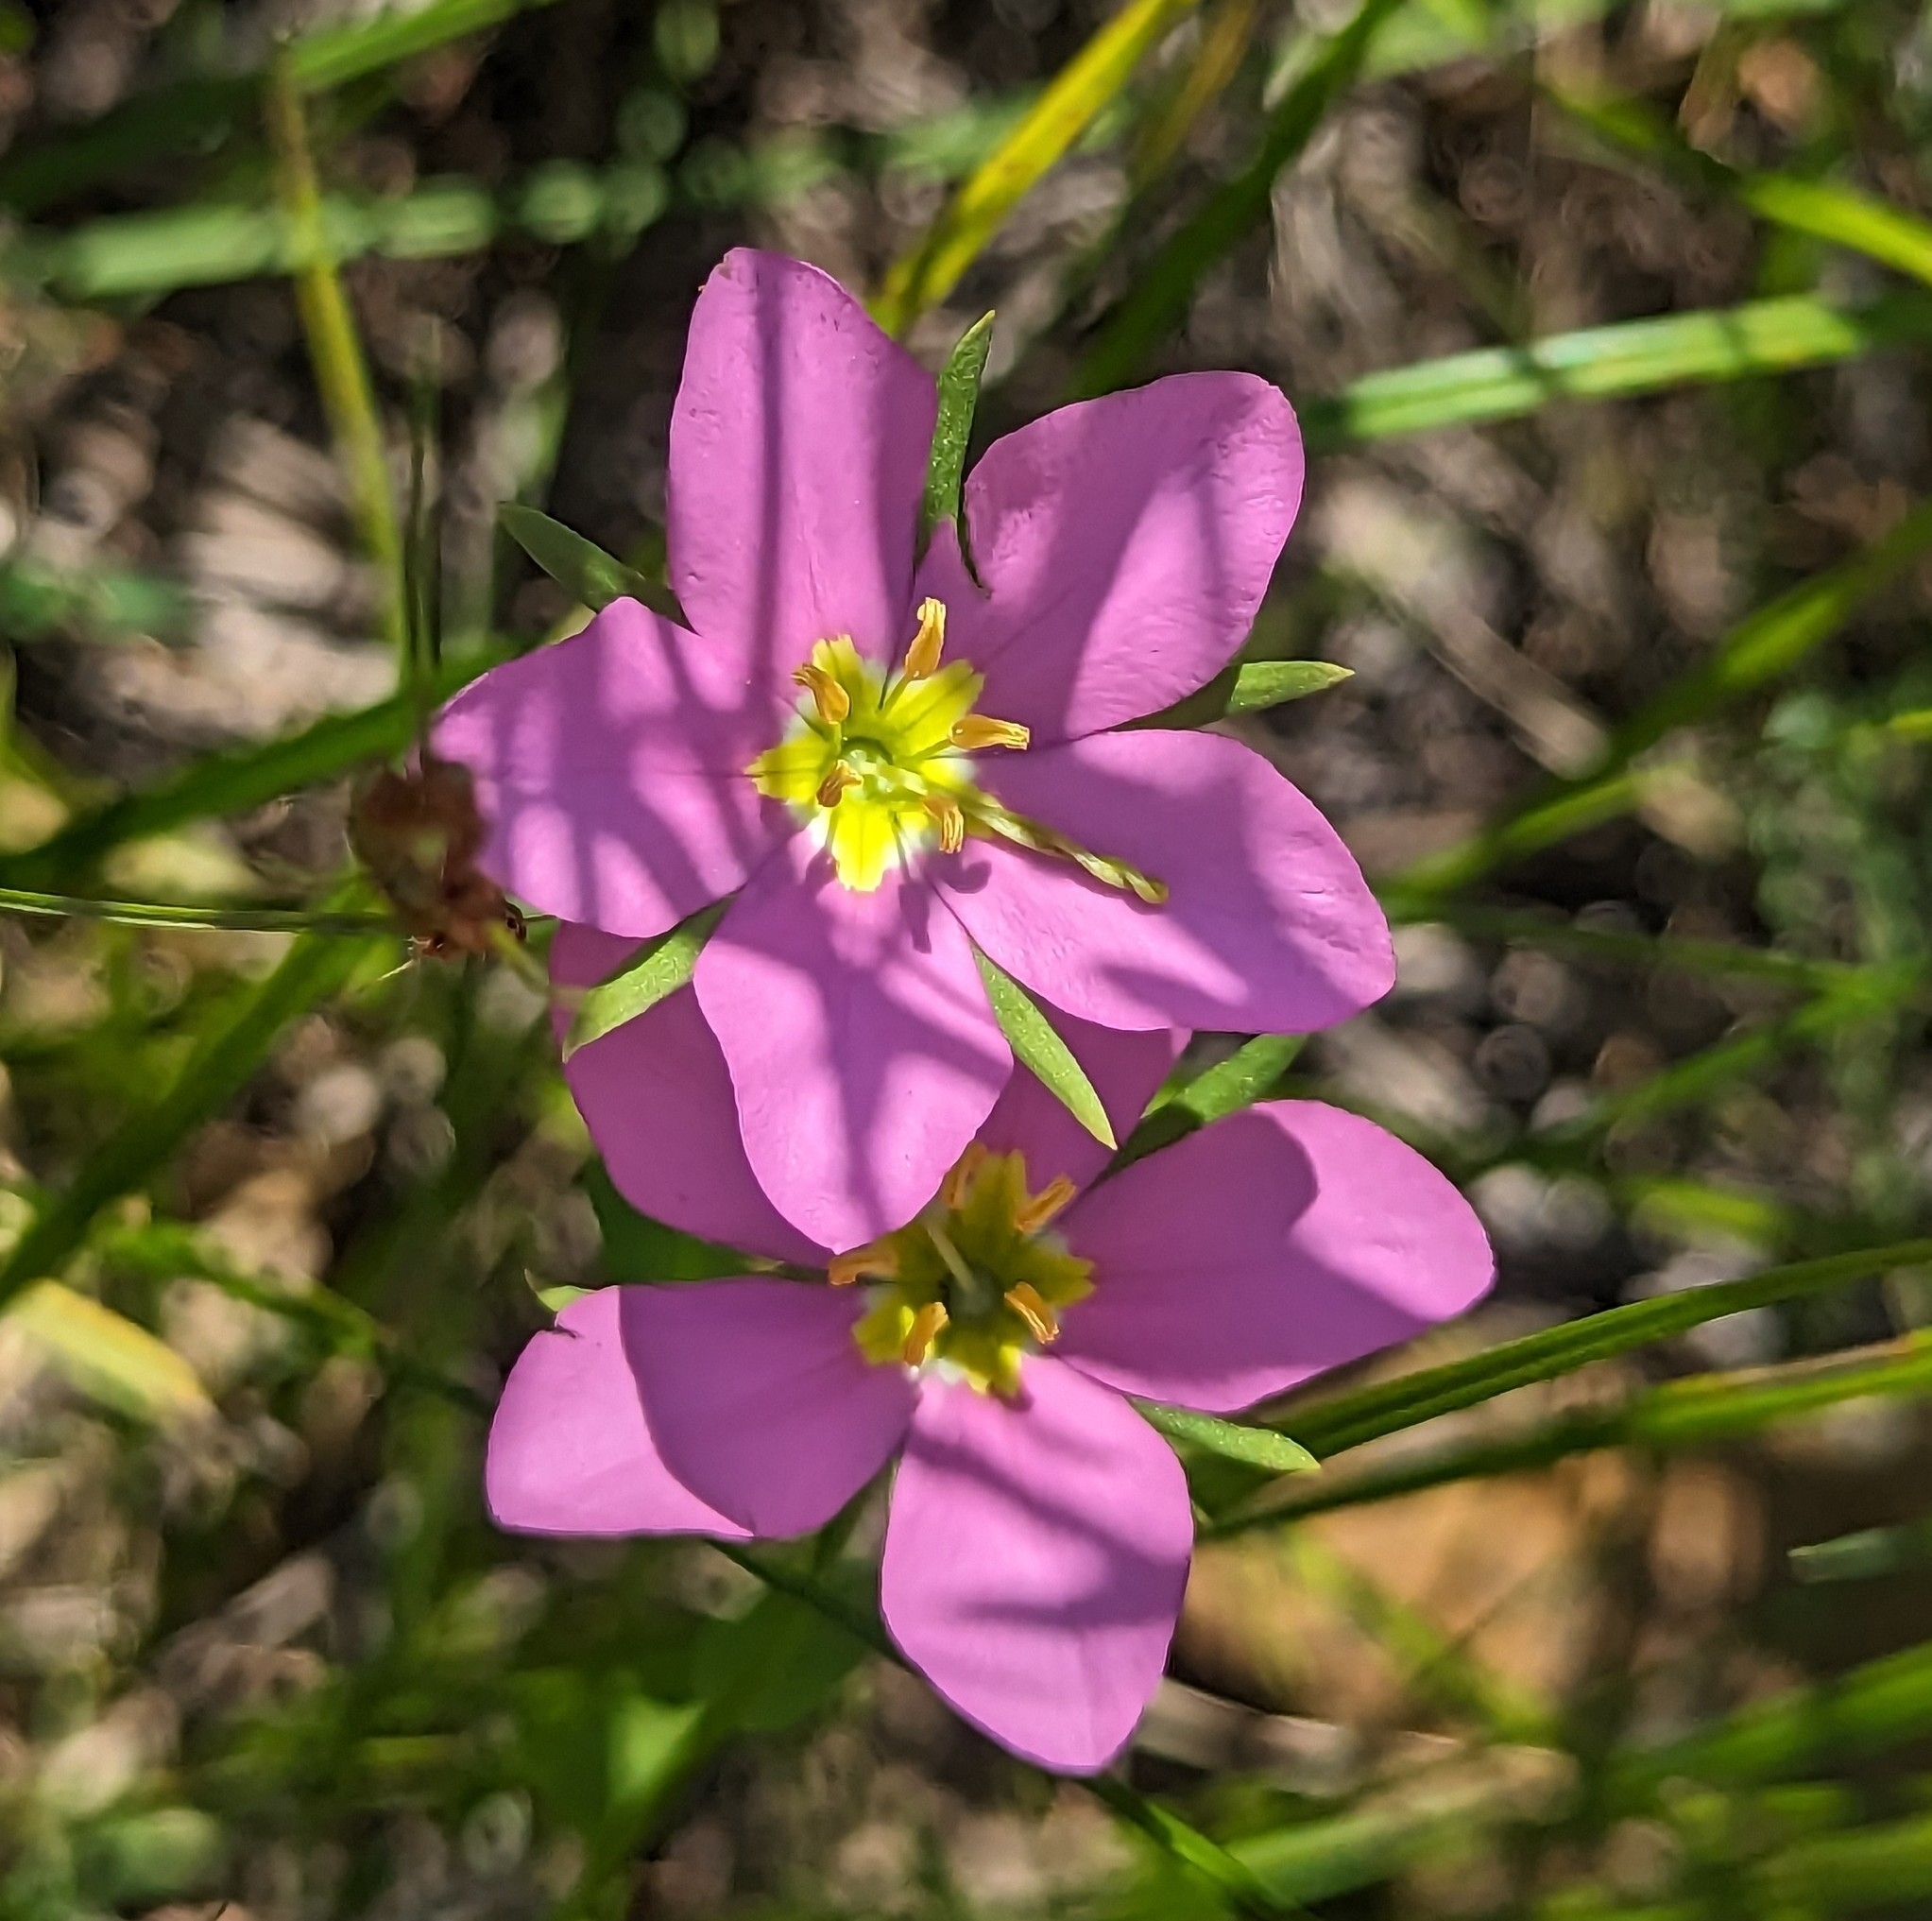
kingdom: Plantae
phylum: Tracheophyta
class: Magnoliopsida
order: Gentianales
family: Gentianaceae
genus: Sabatia
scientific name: Sabatia campestris
